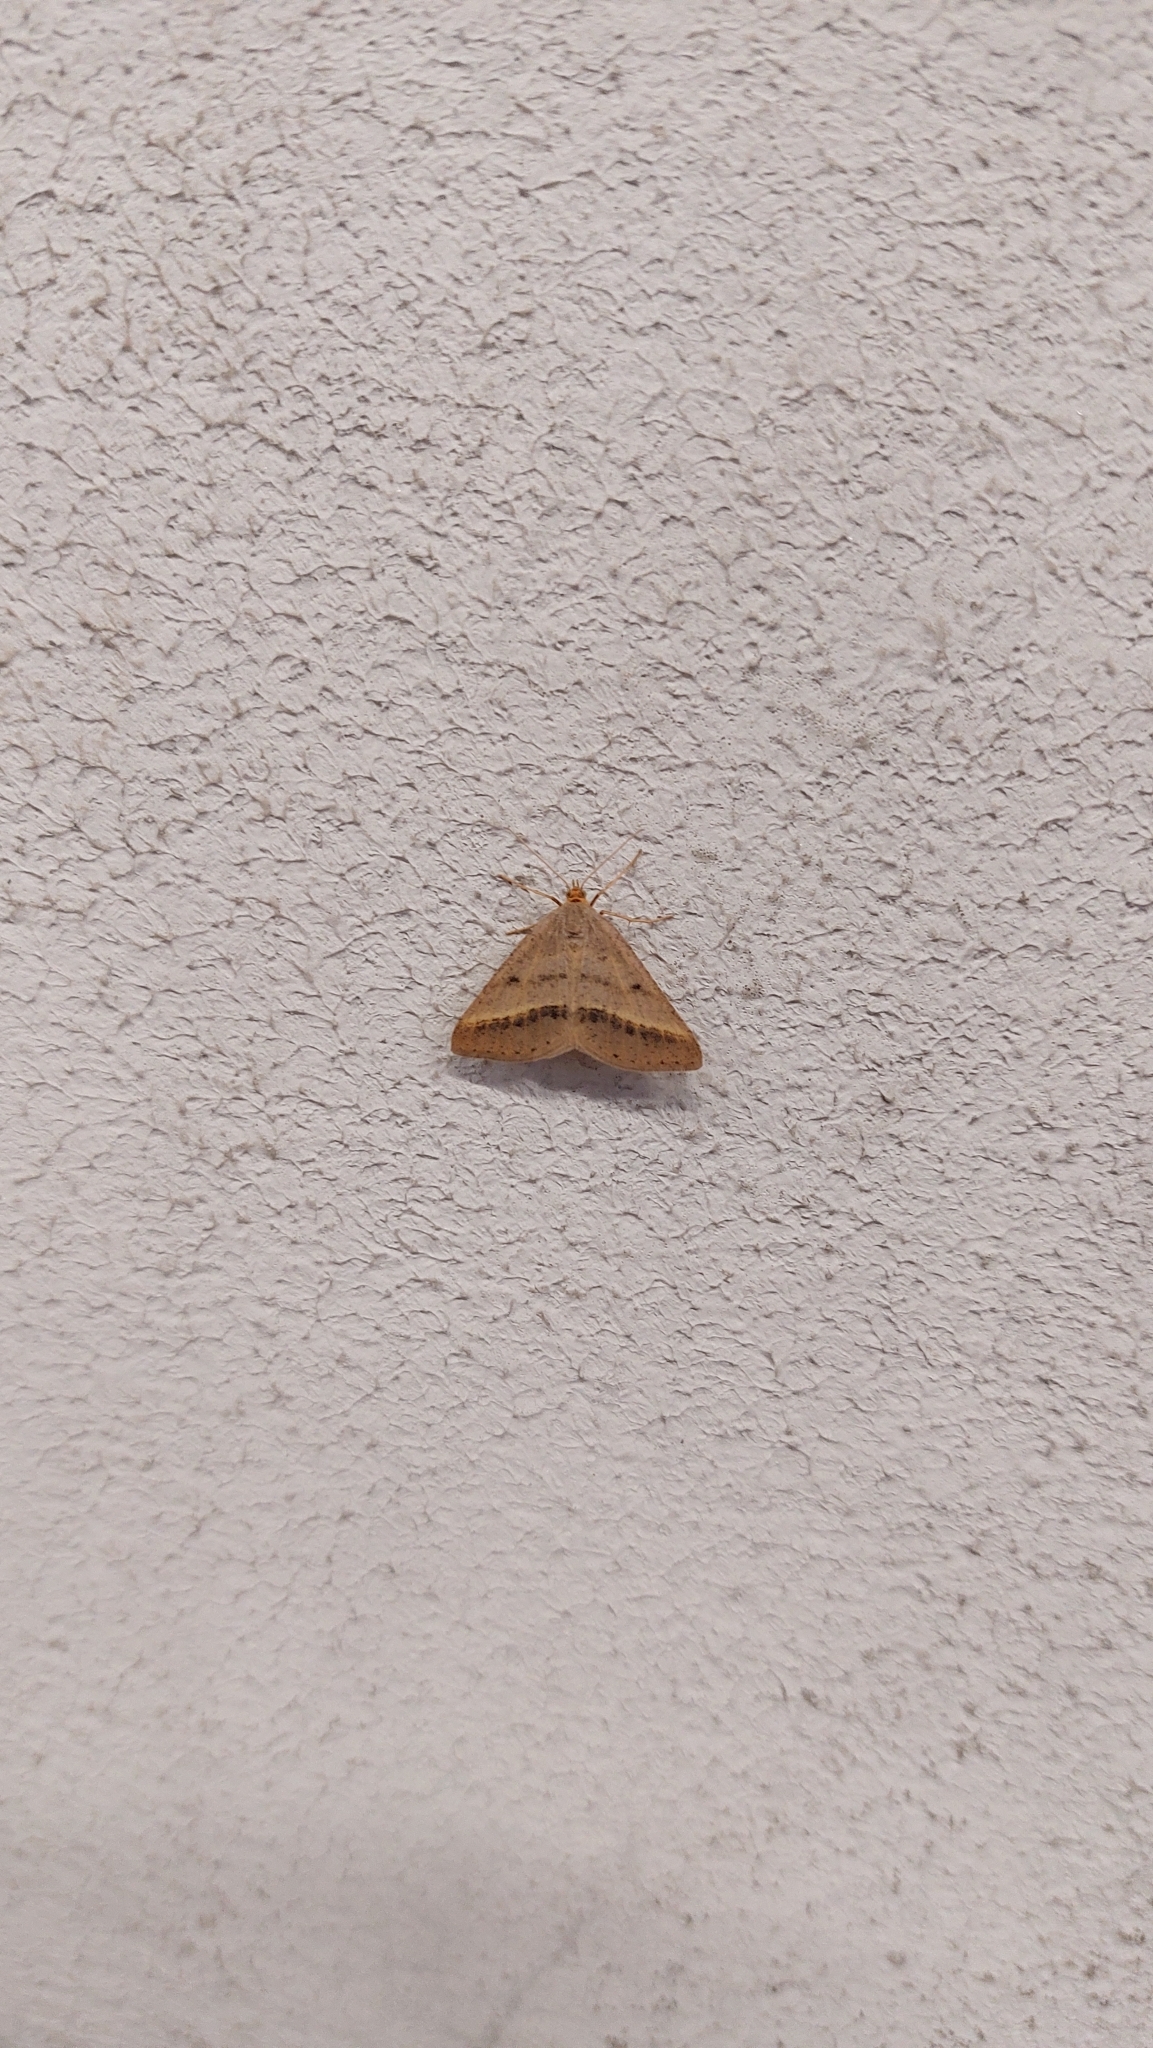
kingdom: Animalia
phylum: Arthropoda
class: Insecta
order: Lepidoptera
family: Geometridae
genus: Tephrina
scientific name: Tephrina arenacearia
